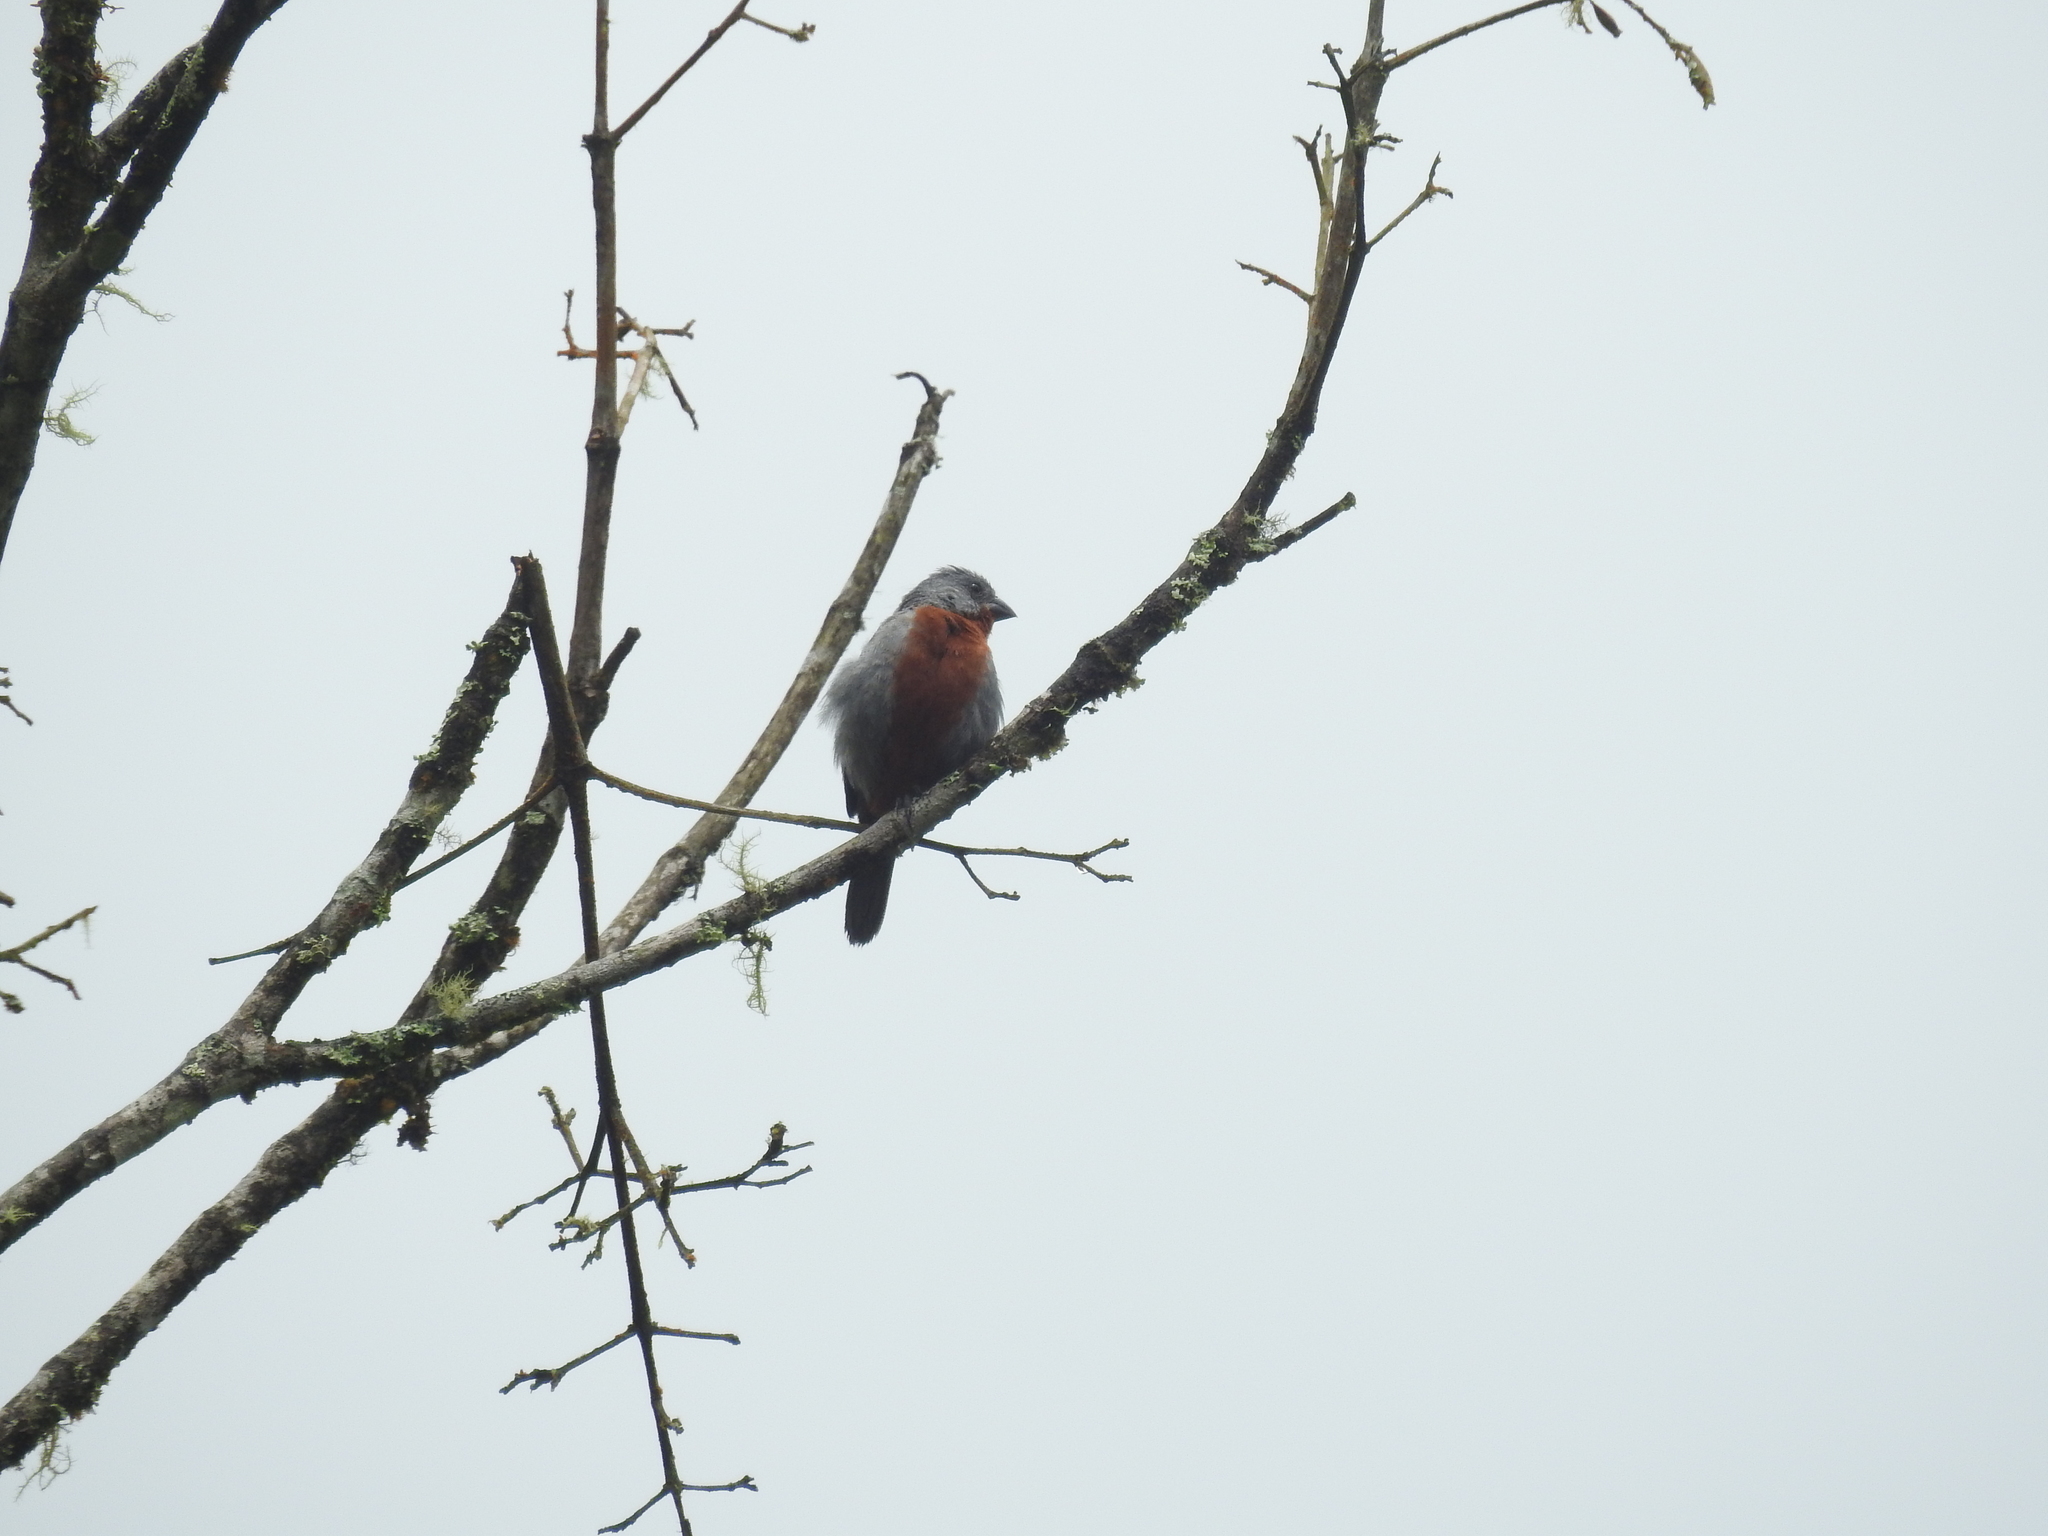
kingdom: Animalia
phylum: Chordata
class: Aves
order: Passeriformes
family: Thraupidae
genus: Sporophila
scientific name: Sporophila castaneiventris
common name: Chestnut-bellied seedeater
